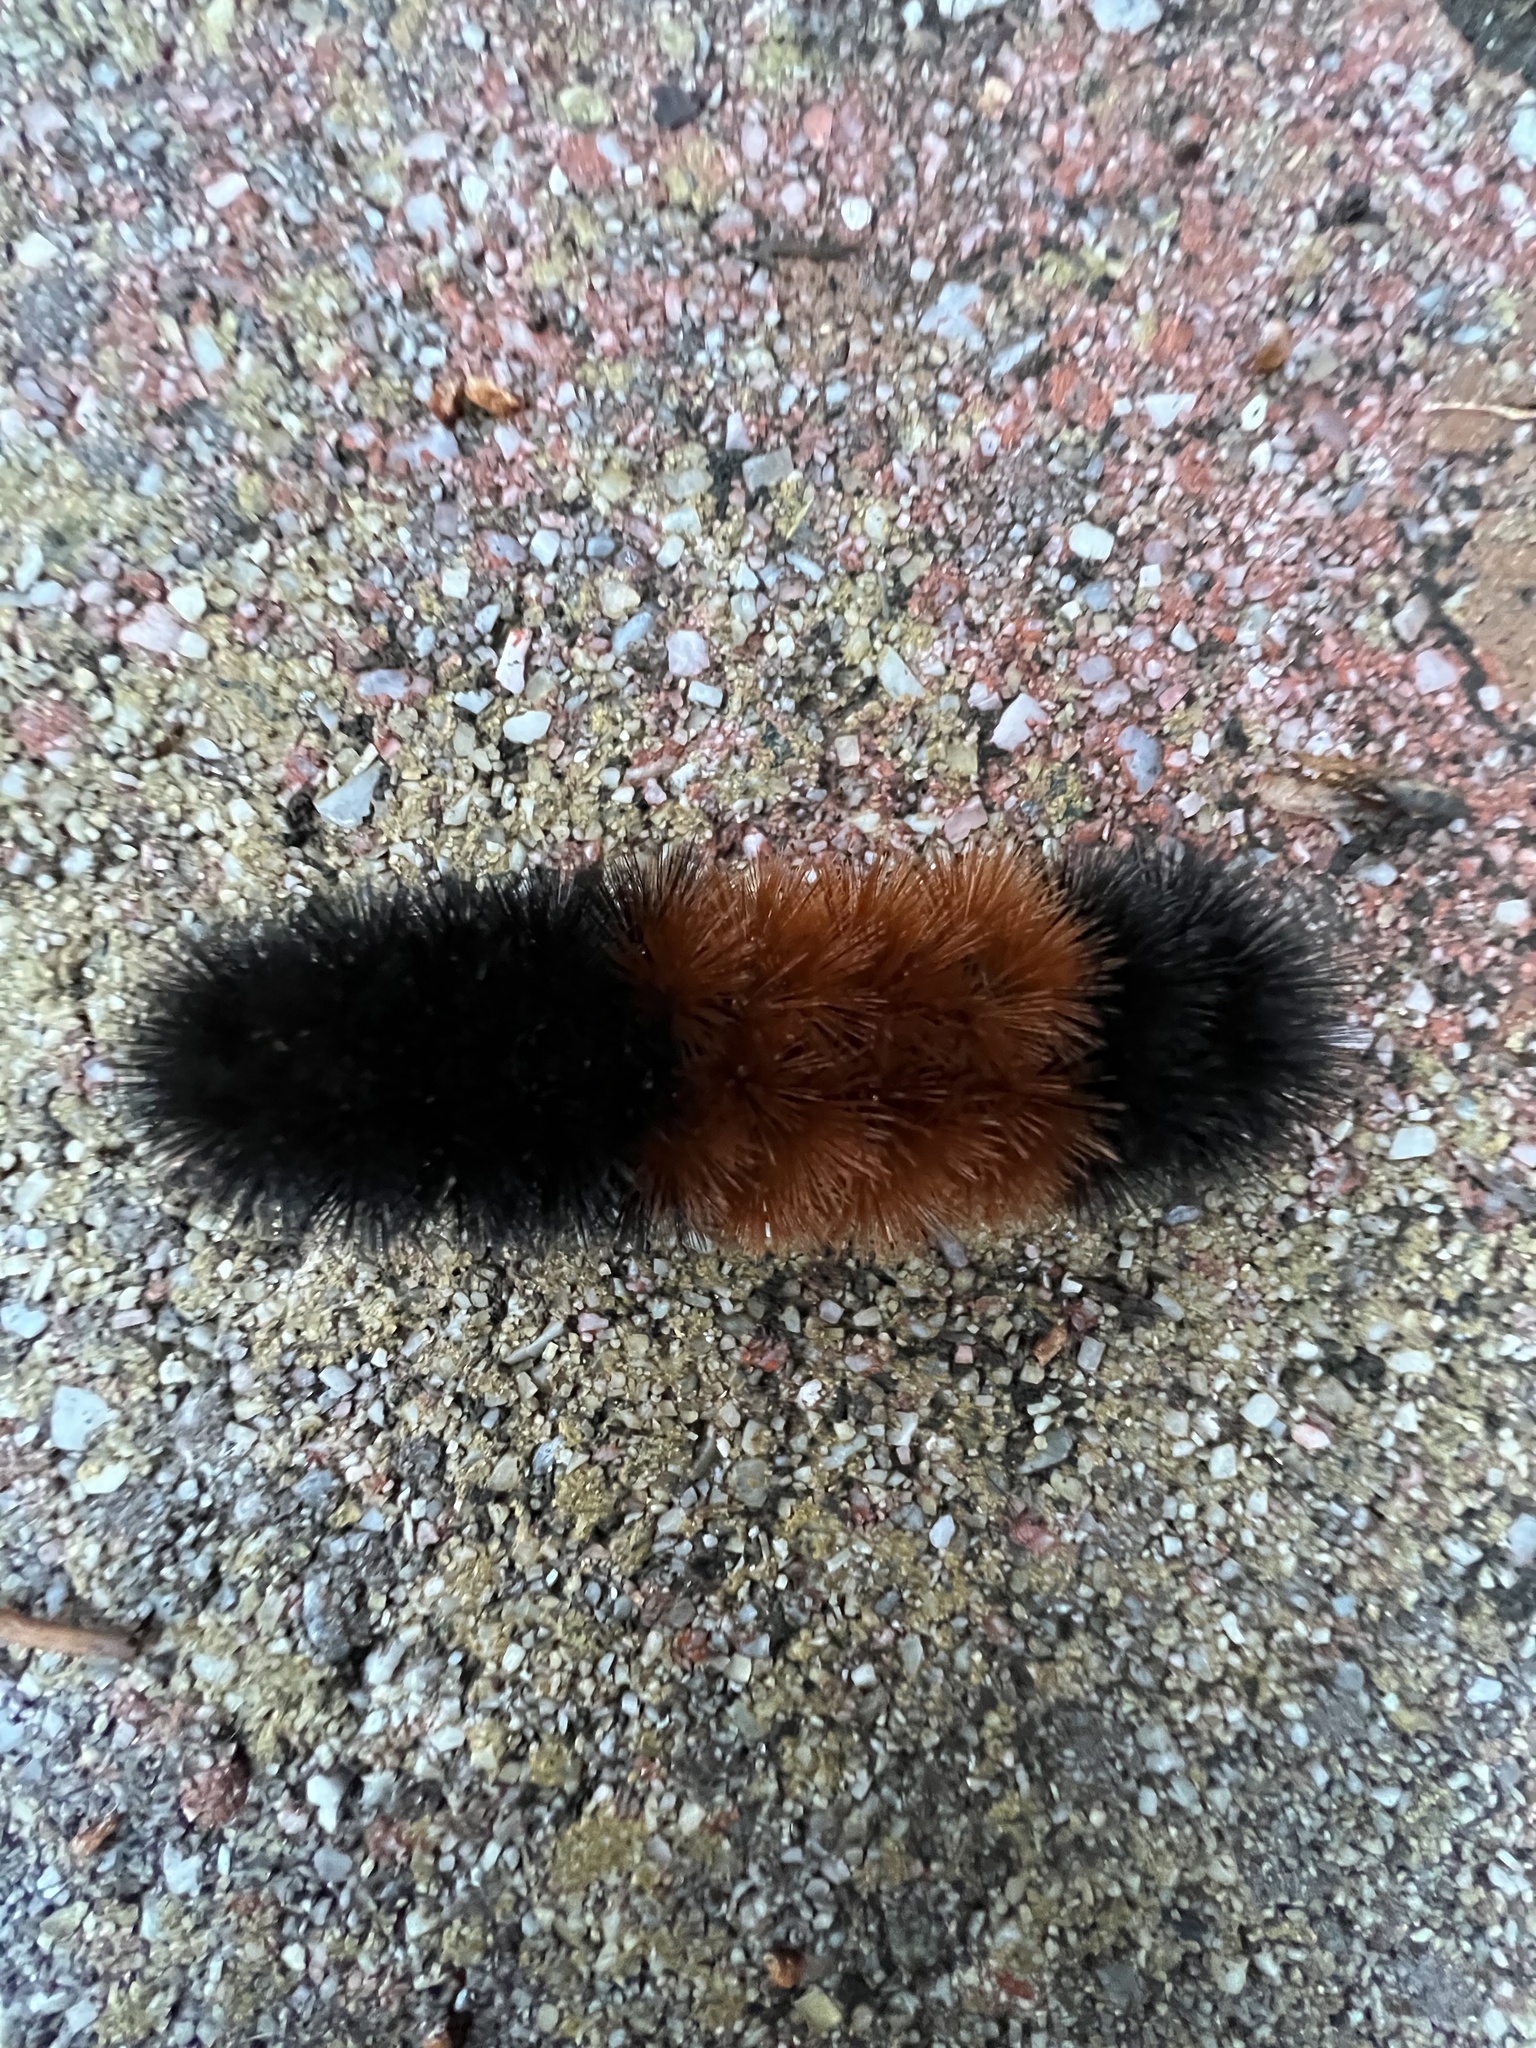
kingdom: Animalia
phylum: Arthropoda
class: Insecta
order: Lepidoptera
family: Erebidae
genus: Pyrrharctia
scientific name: Pyrrharctia isabella
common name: Isabella tiger moth
